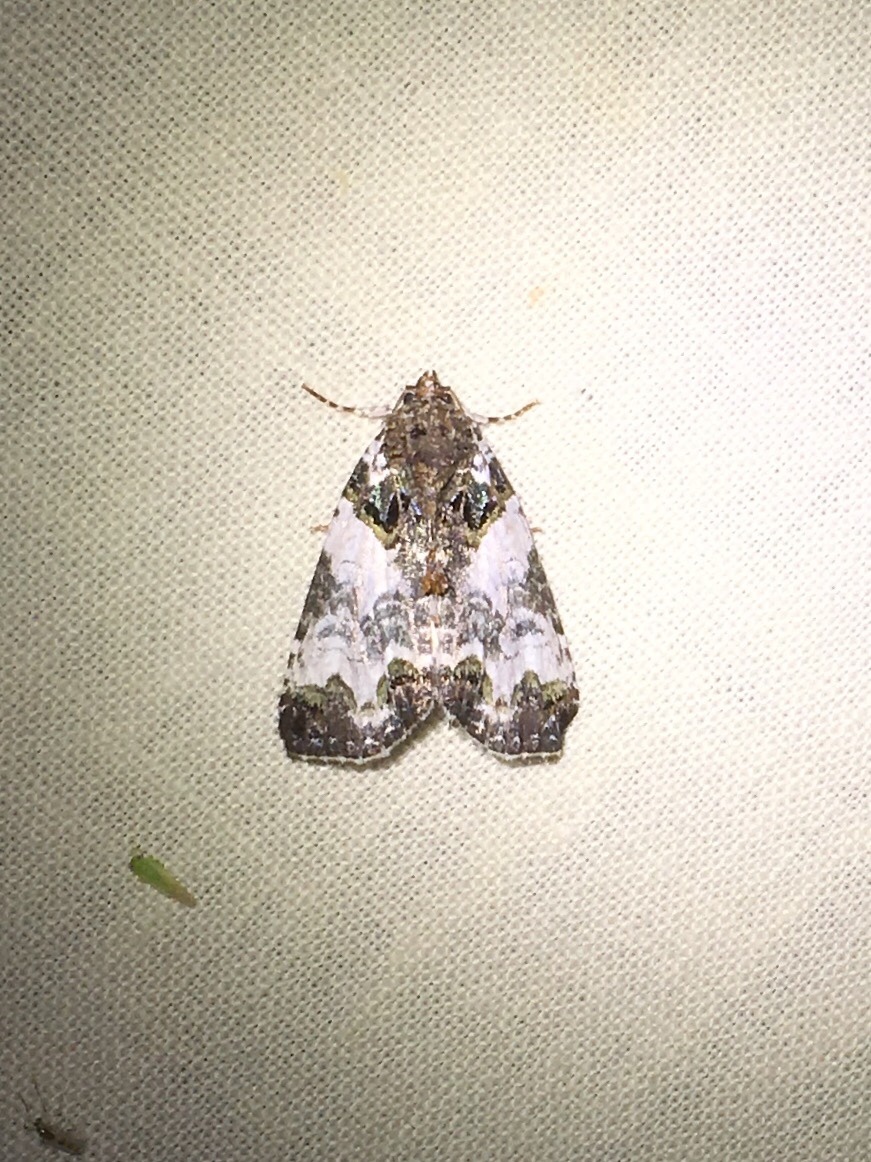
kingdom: Animalia
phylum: Arthropoda
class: Insecta
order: Lepidoptera
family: Noctuidae
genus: Cerma
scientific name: Cerma cerintha
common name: Tufted bird-dropping moth
